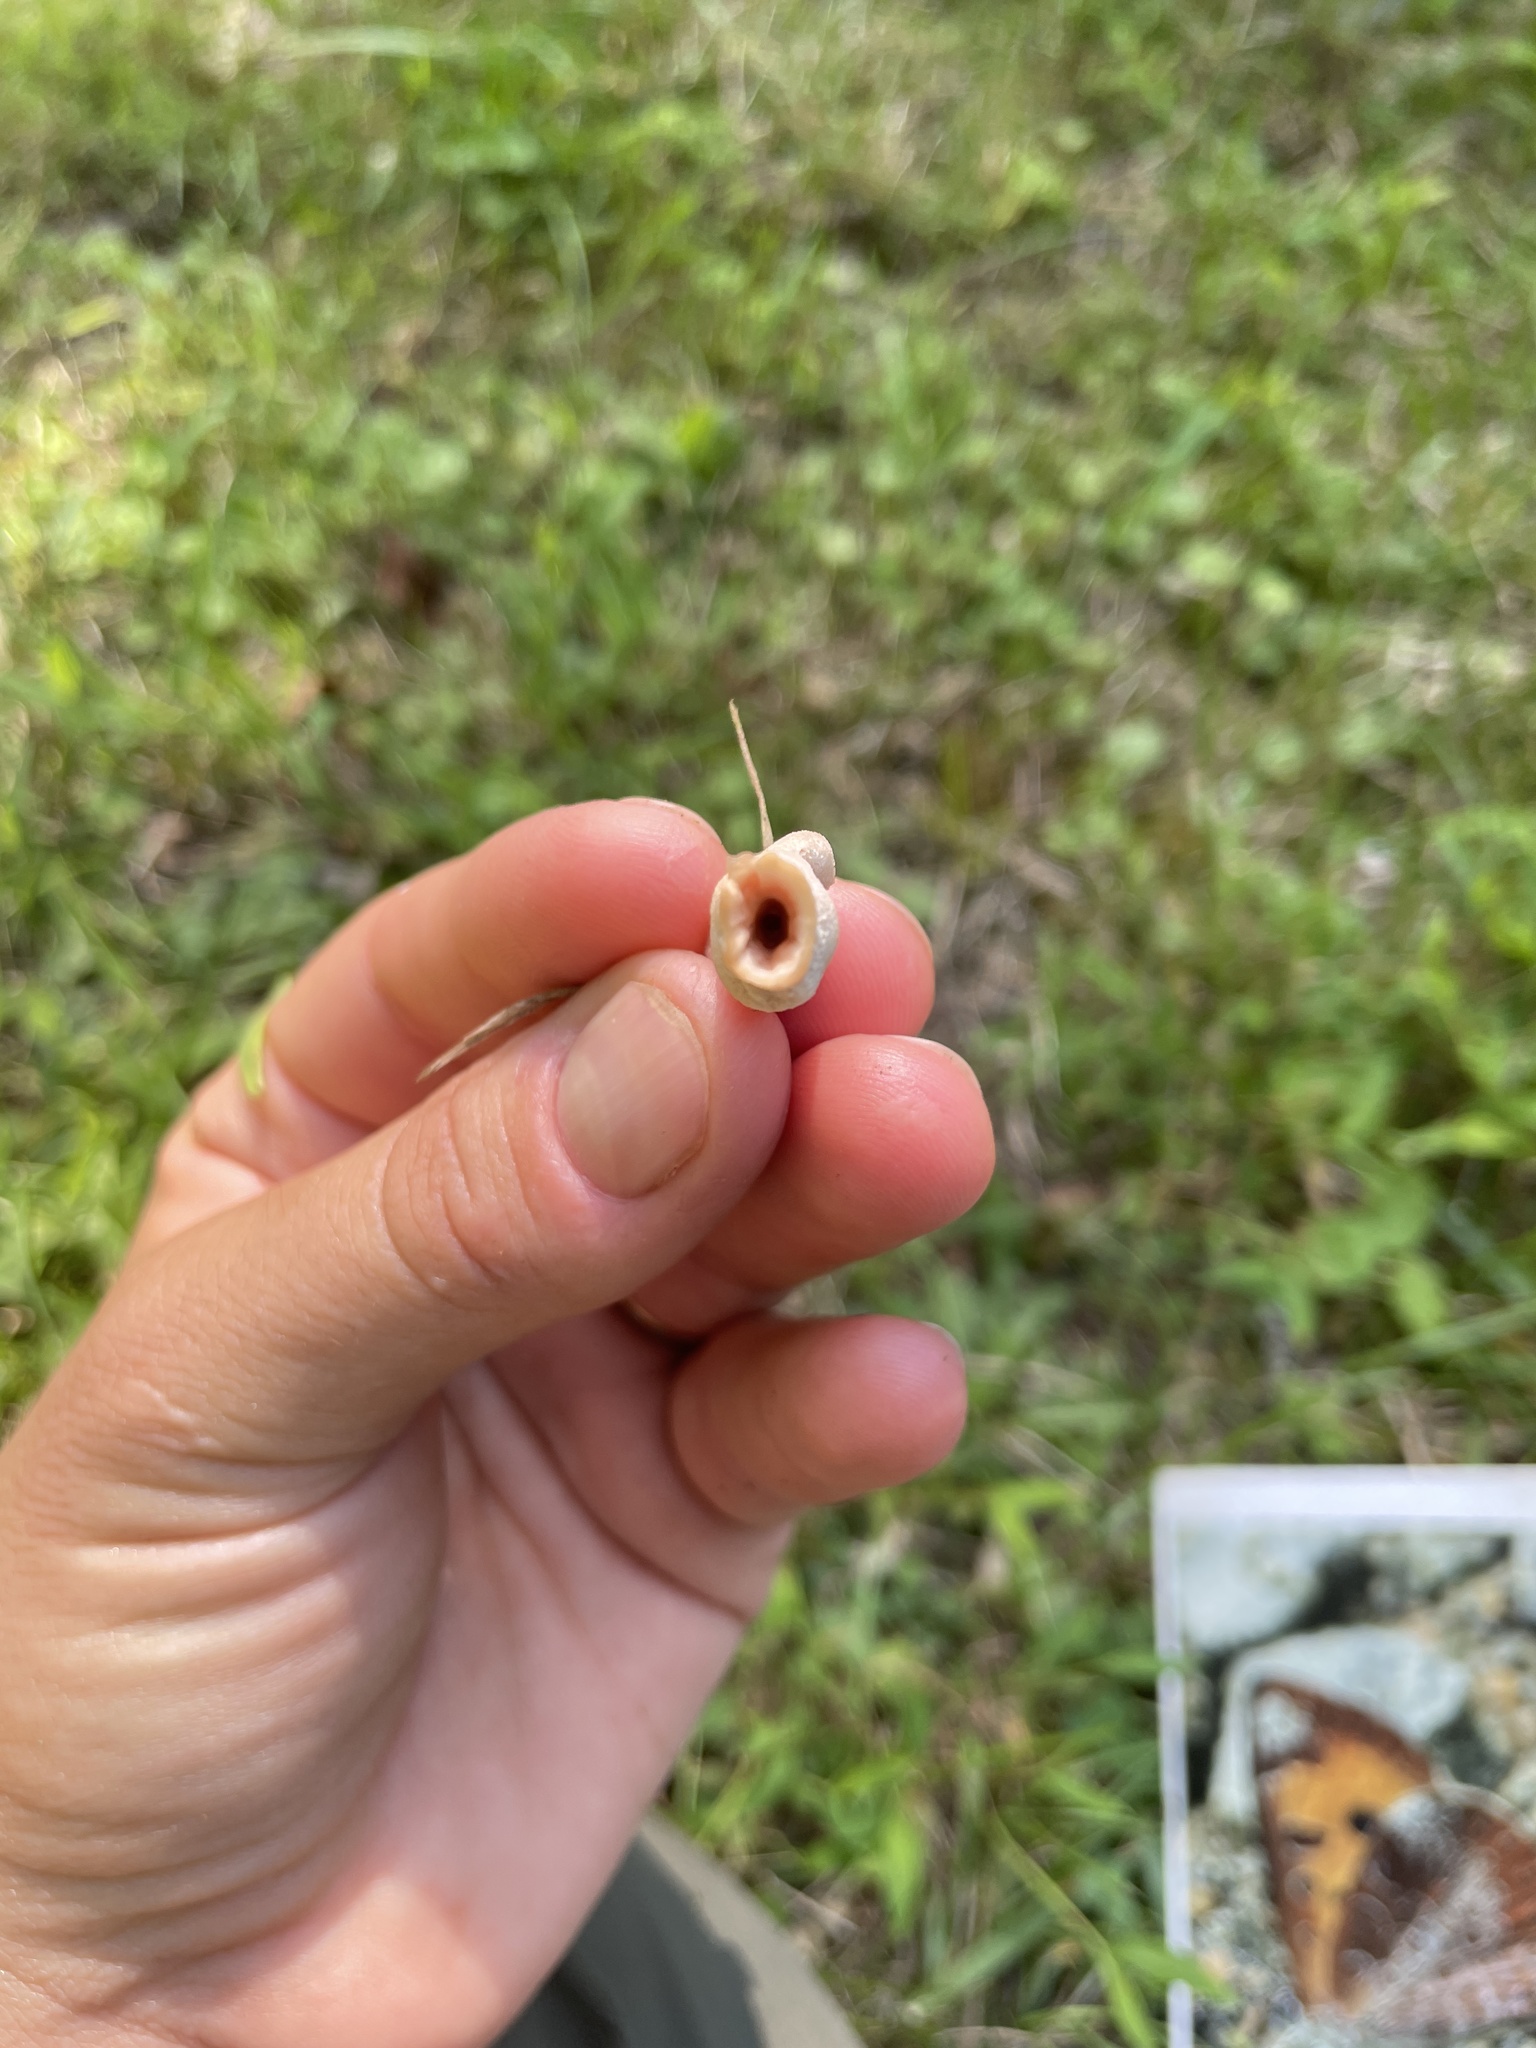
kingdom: Fungi
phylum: Basidiomycota
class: Agaricomycetes
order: Polyporales
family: Podoscyphaceae
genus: Abortiporus
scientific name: Abortiporus biennis
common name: Blushing rosette
